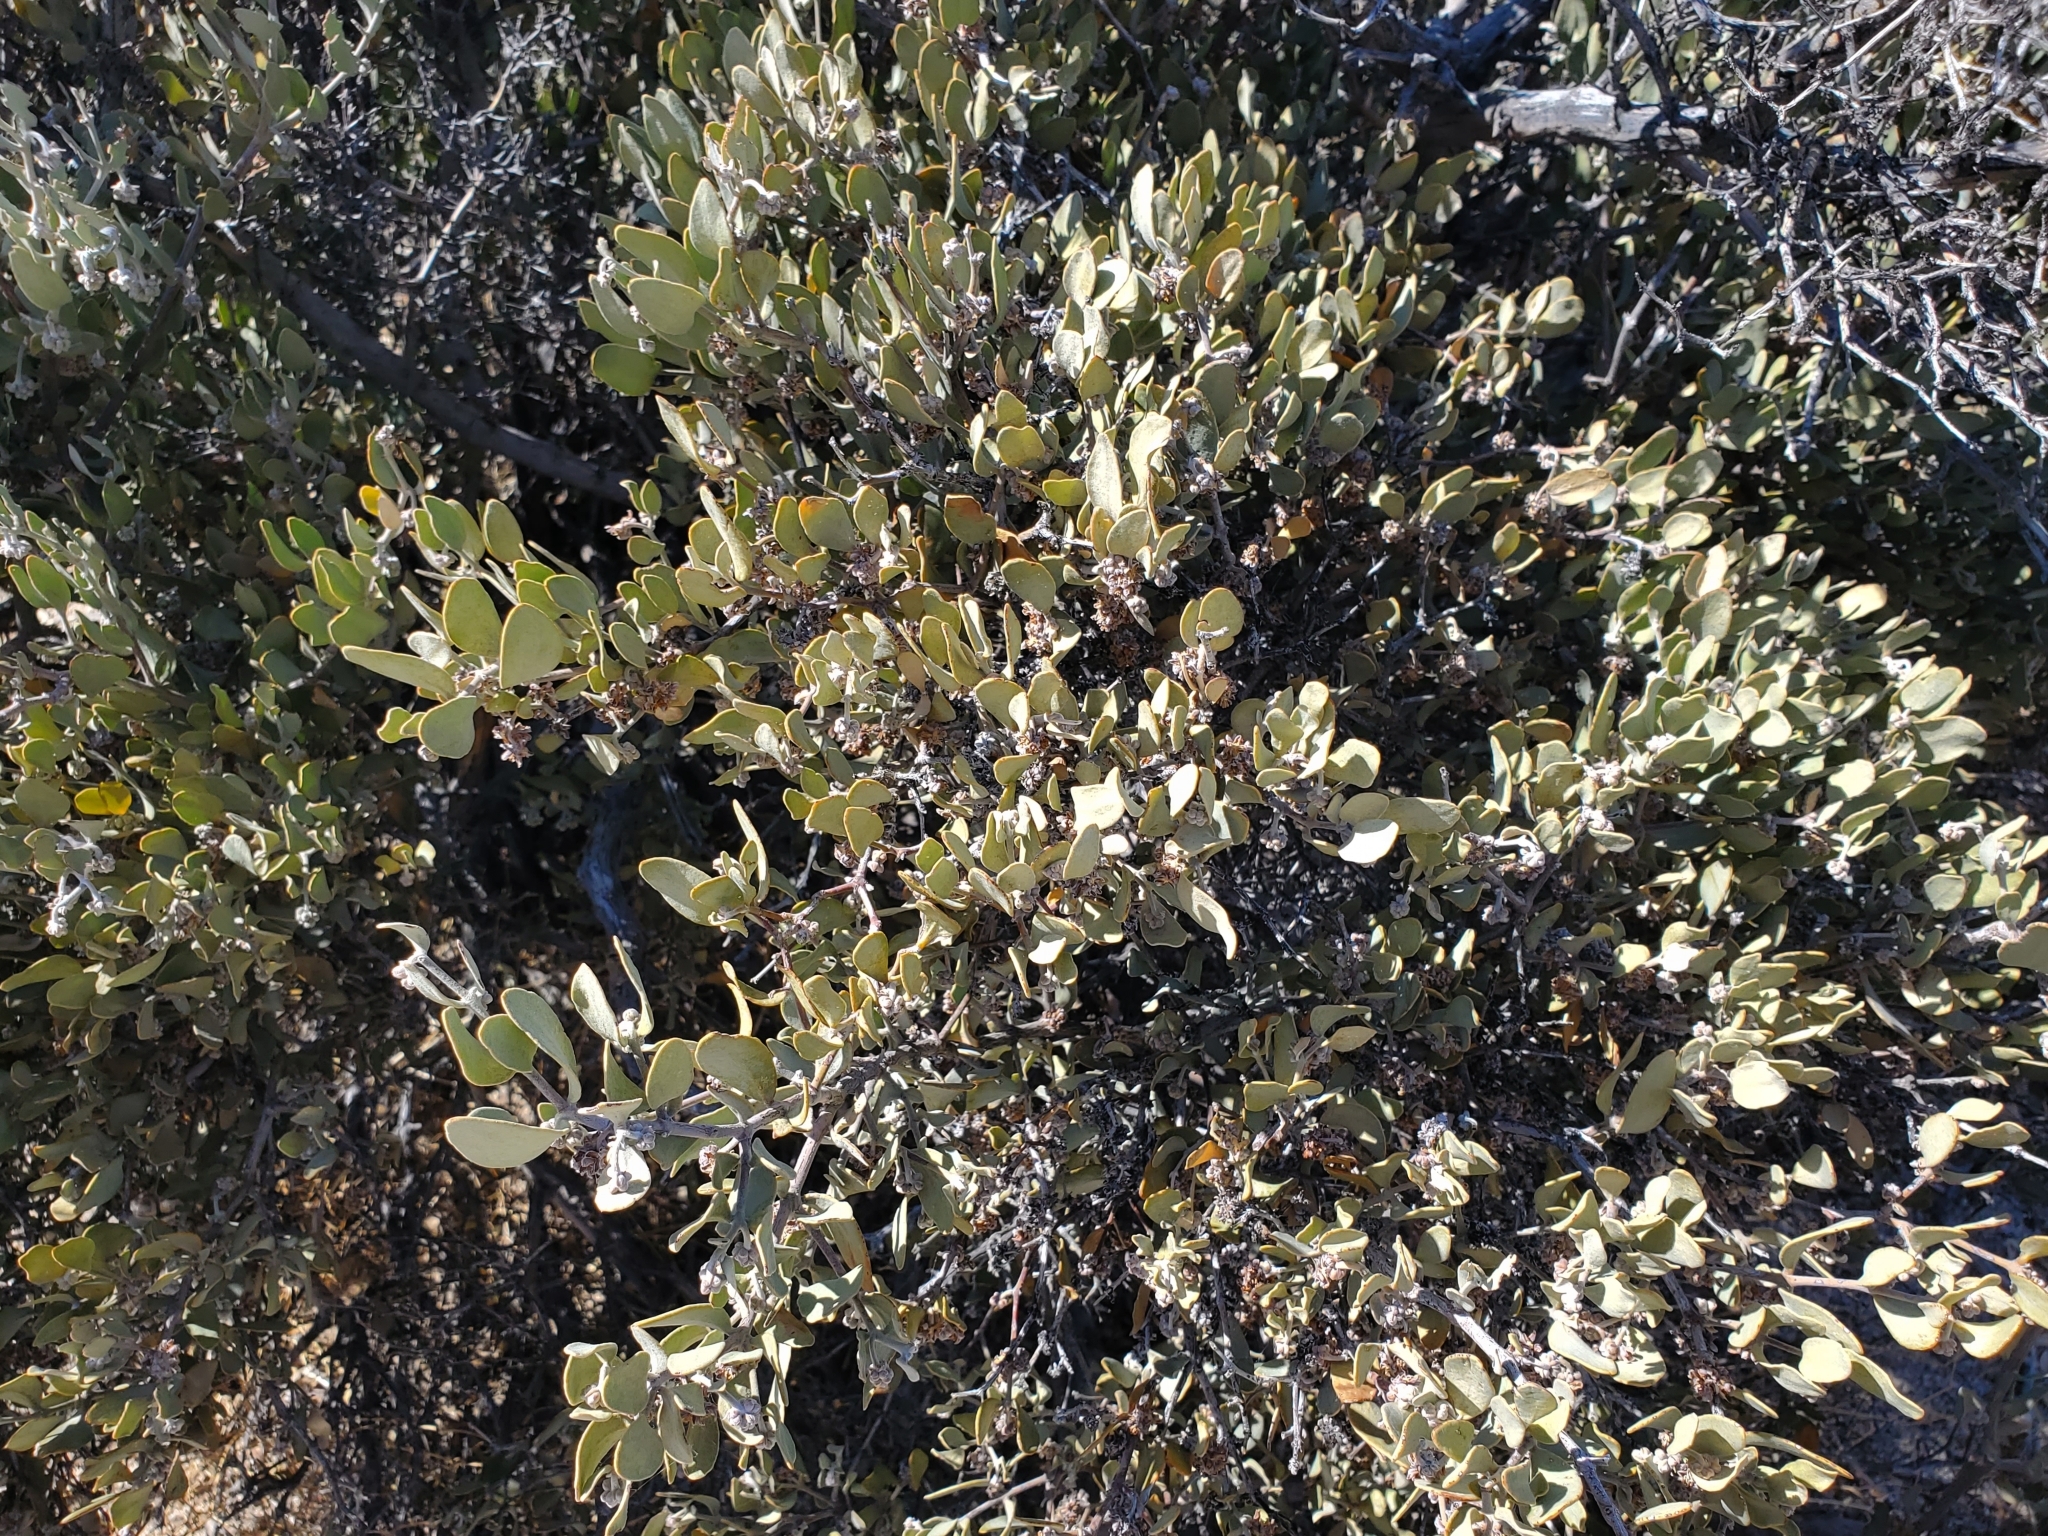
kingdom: Plantae
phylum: Tracheophyta
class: Magnoliopsida
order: Caryophyllales
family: Simmondsiaceae
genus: Simmondsia
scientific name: Simmondsia chinensis
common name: Jojoba
